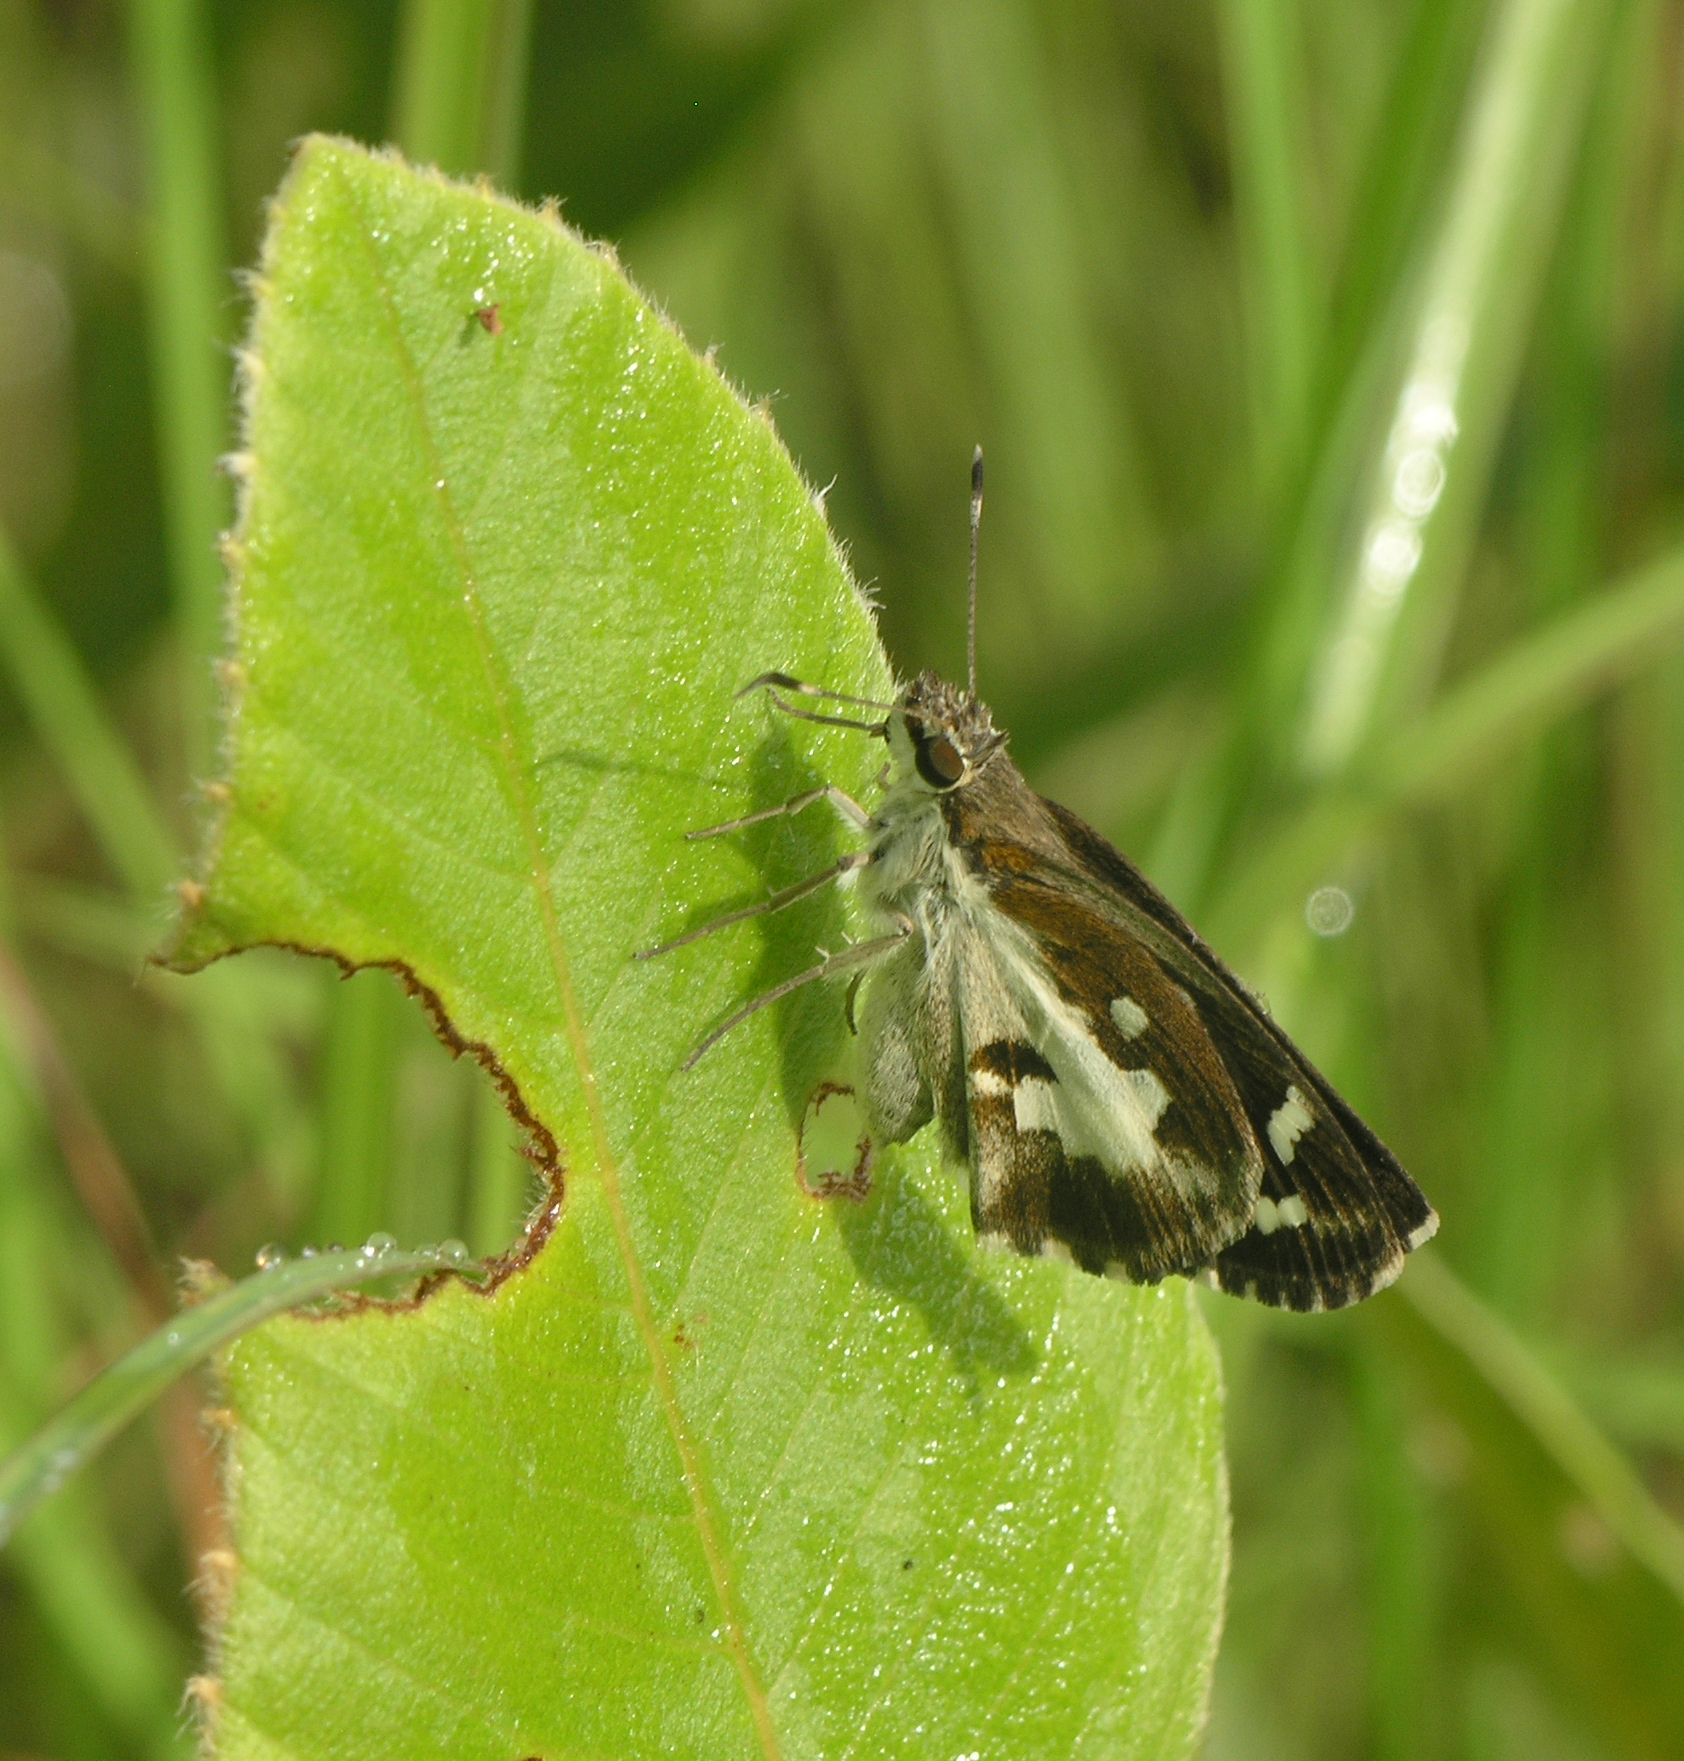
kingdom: Animalia
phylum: Arthropoda
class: Insecta
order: Lepidoptera
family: Hesperiidae
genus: Udaspes
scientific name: Udaspes folus
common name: Grass demon
